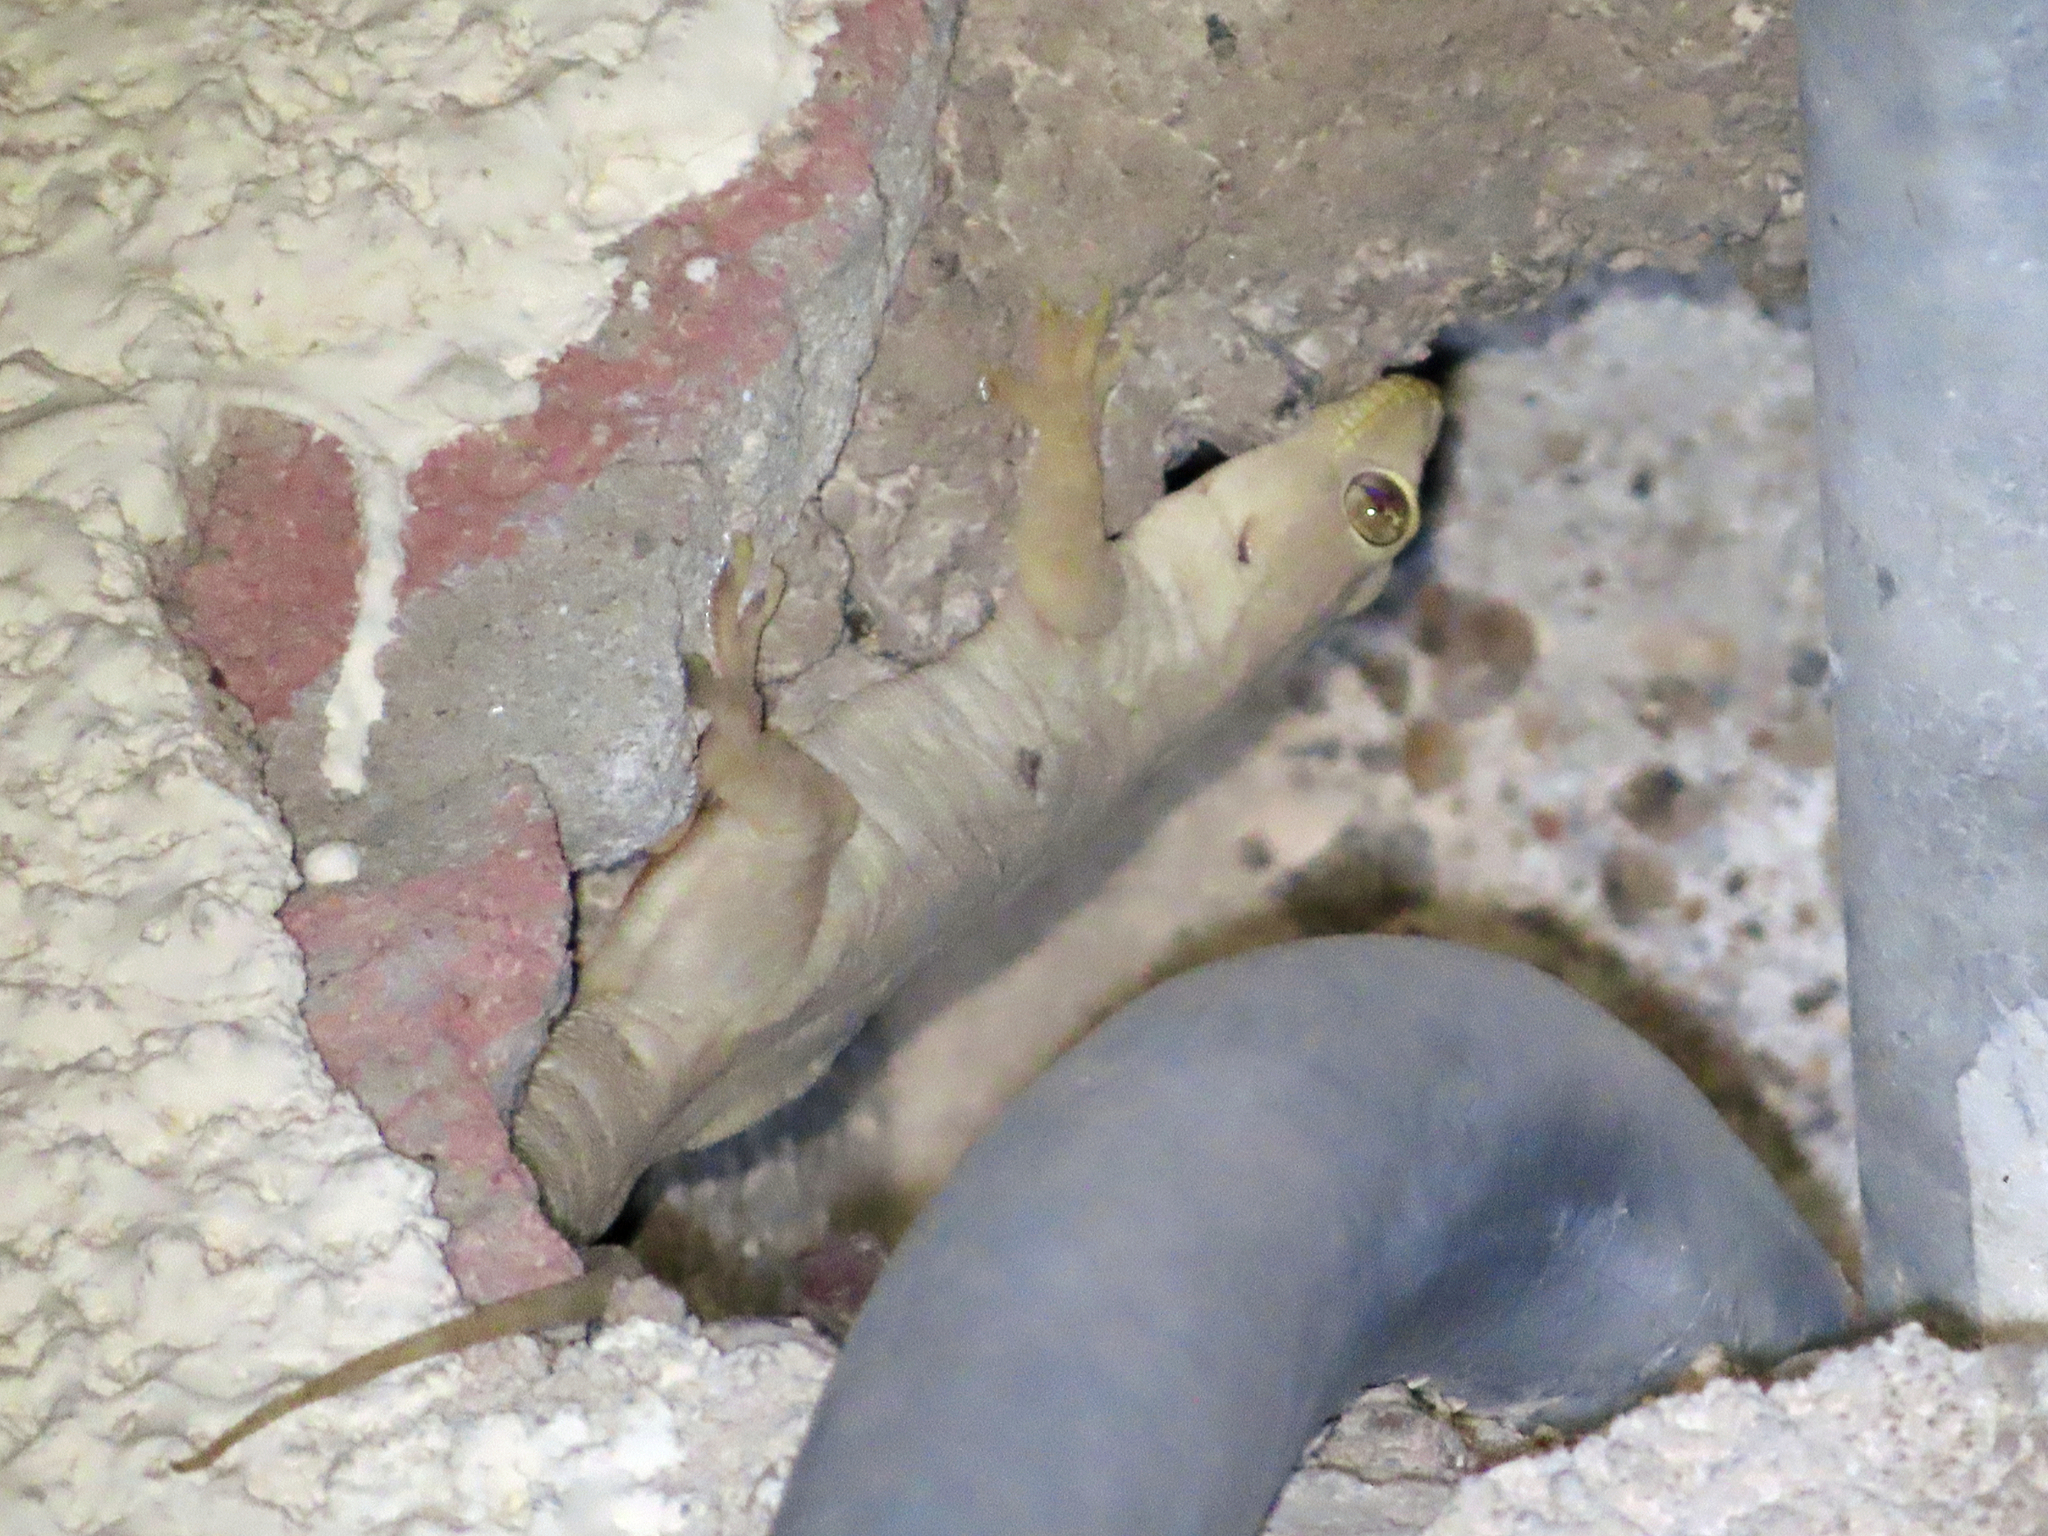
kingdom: Animalia
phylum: Chordata
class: Squamata
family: Gekkonidae
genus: Hemidactylus
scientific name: Hemidactylus flaviviridis
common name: Northern house gecko
